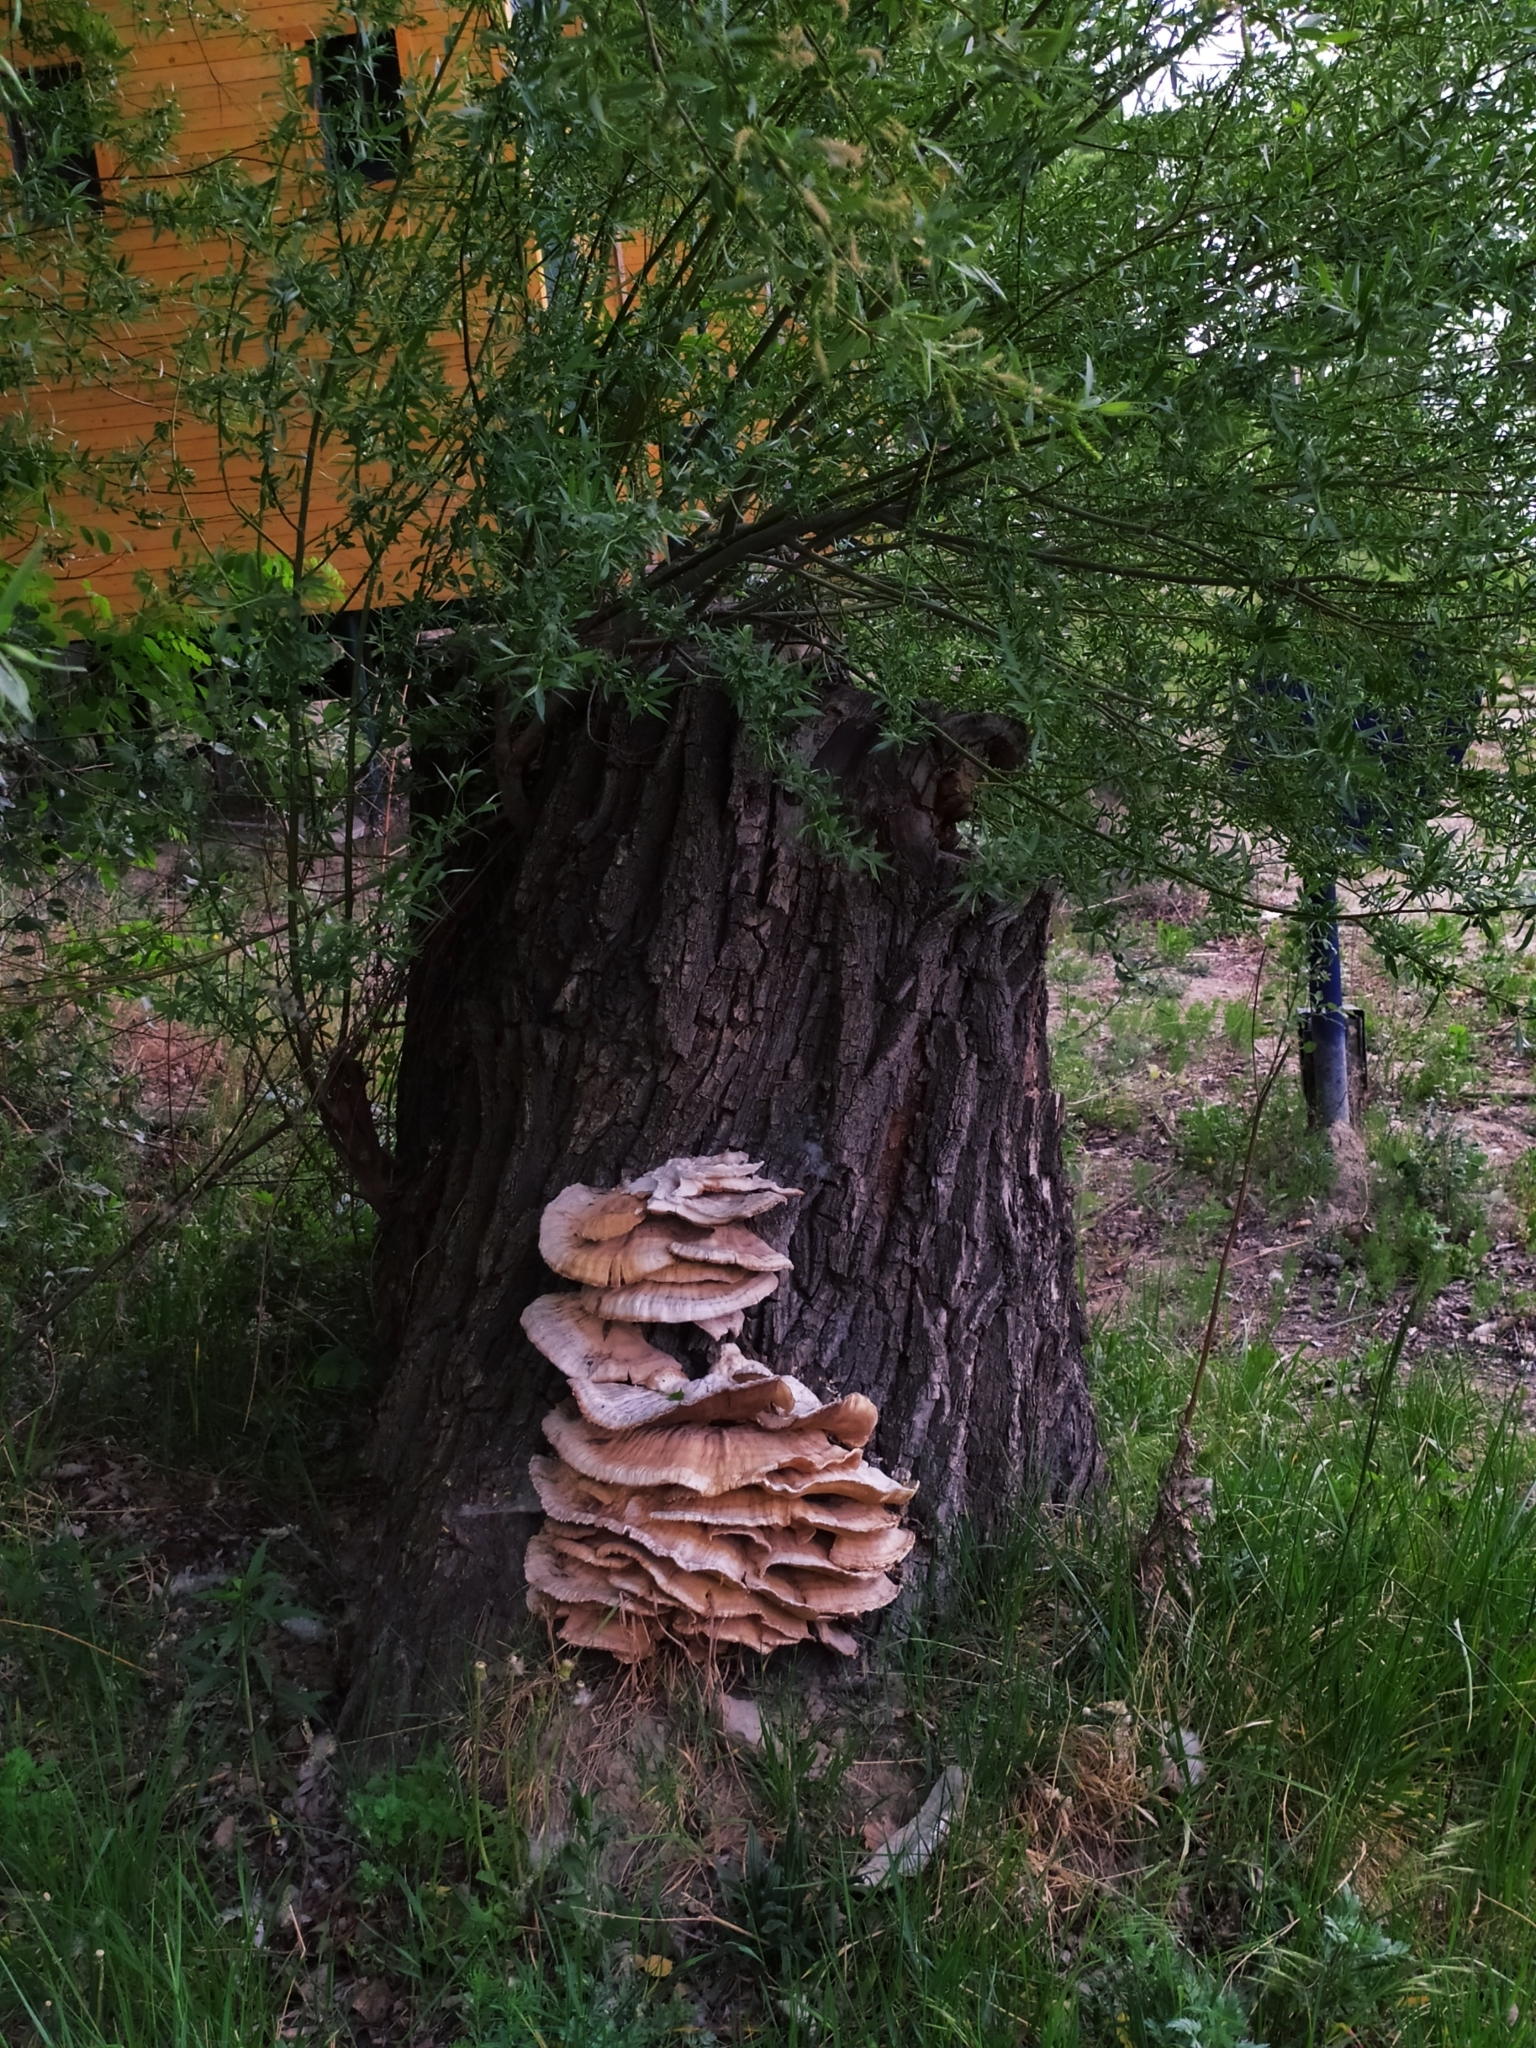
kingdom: Fungi
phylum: Basidiomycota
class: Agaricomycetes
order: Polyporales
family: Laetiporaceae
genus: Laetiporus
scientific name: Laetiporus sulphureus
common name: Chicken of the woods
